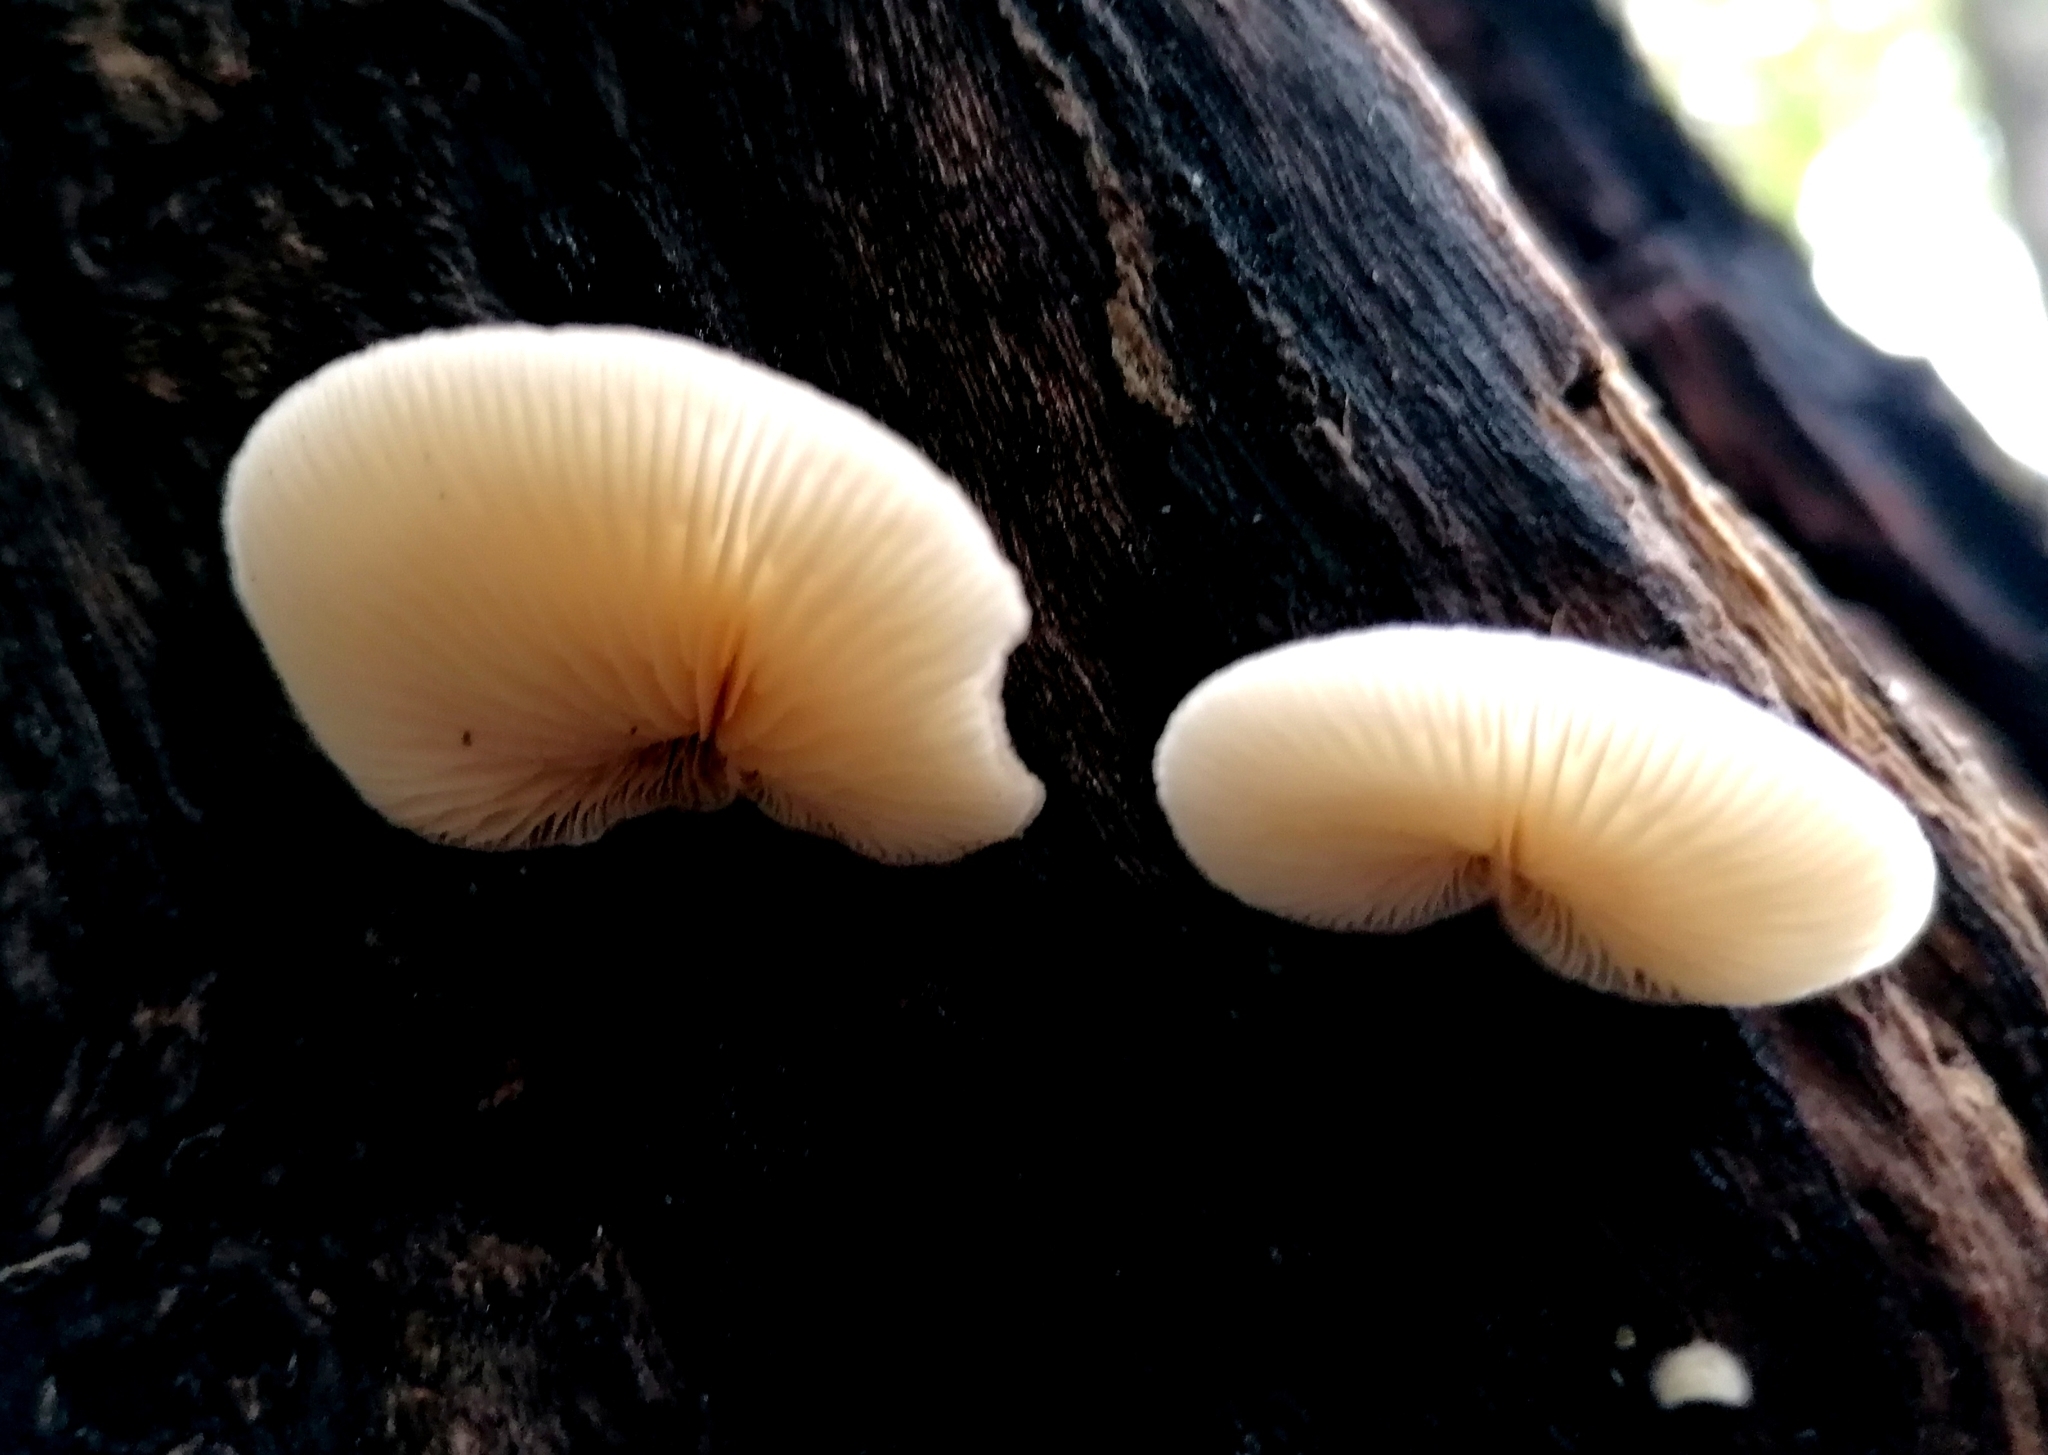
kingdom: Fungi
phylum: Basidiomycota
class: Agaricomycetes
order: Agaricales
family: Crepidotaceae
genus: Crepidotus
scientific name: Crepidotus mollis
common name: Peeling oysterling
